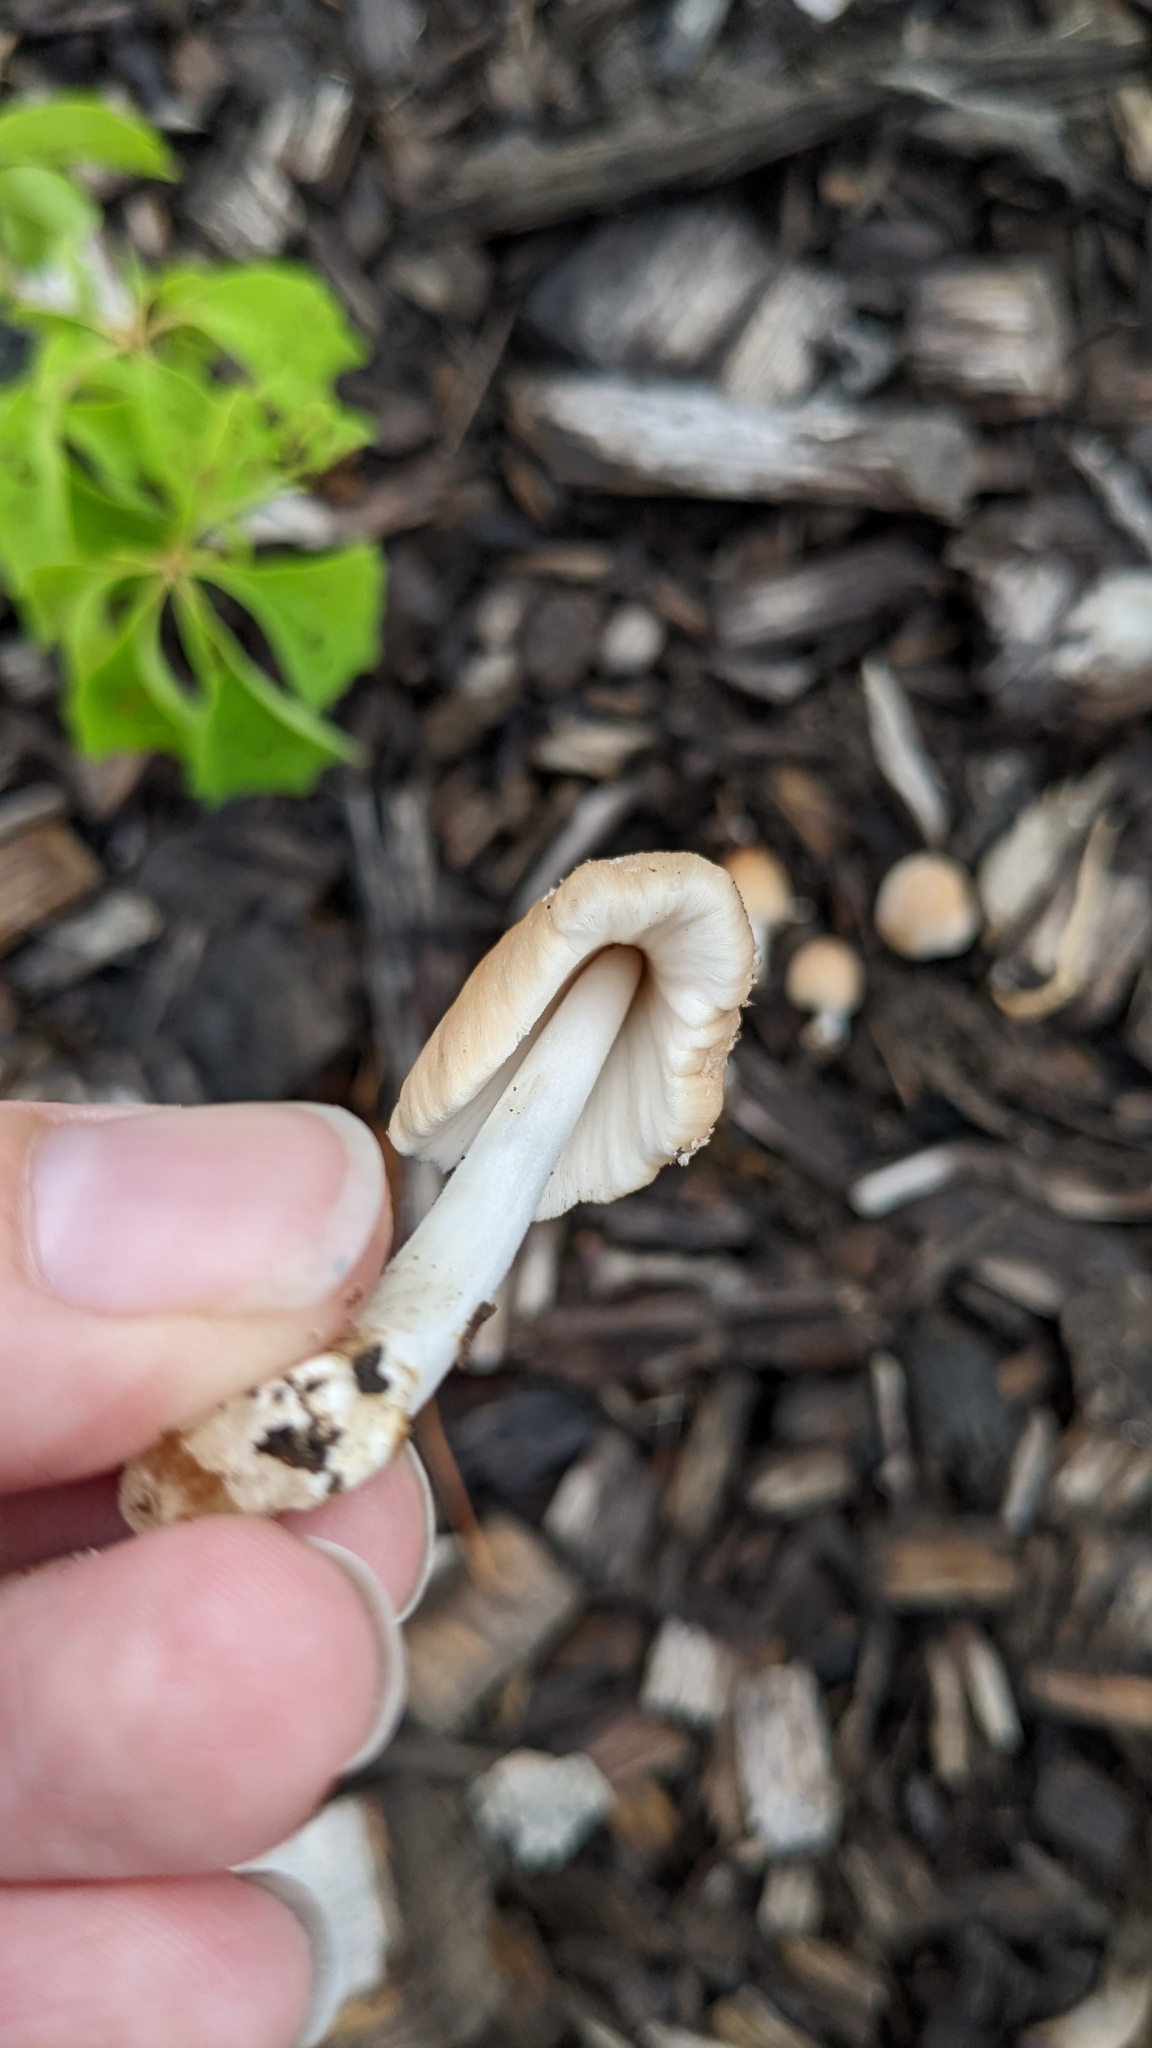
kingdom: Fungi
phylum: Basidiomycota
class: Agaricomycetes
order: Agaricales
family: Psathyrellaceae
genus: Coprinellus
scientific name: Coprinellus radians
